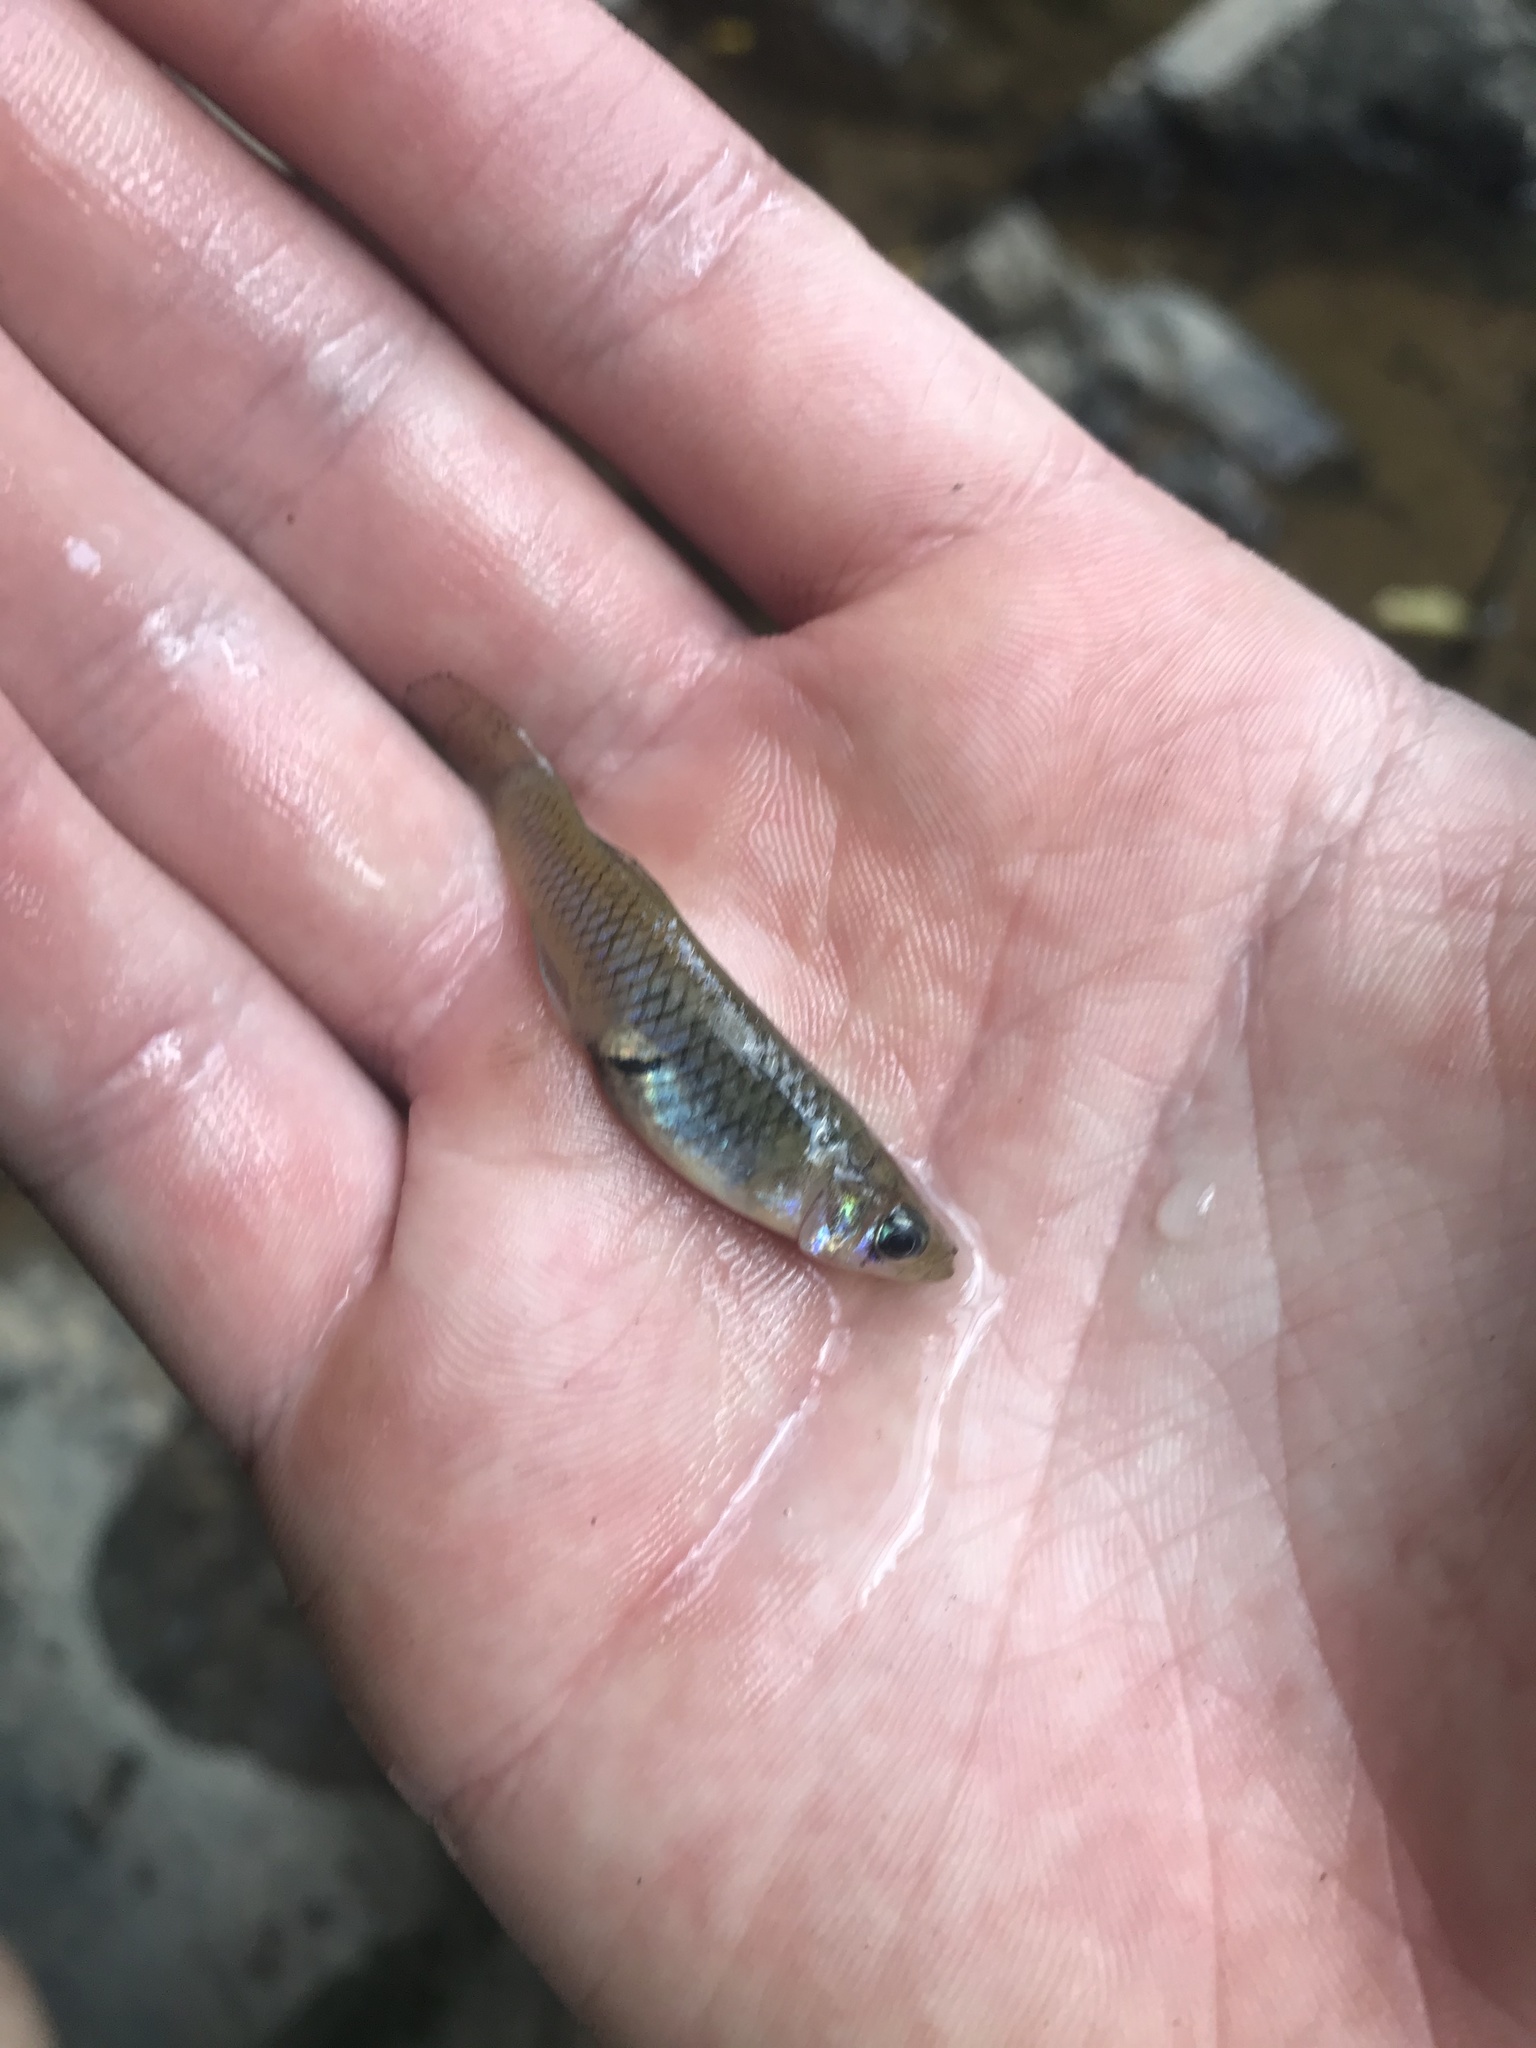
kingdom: Animalia
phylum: Chordata
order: Cyprinodontiformes
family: Poeciliidae
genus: Gambusia
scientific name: Gambusia holbrooki
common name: Eastern mosquitofish
